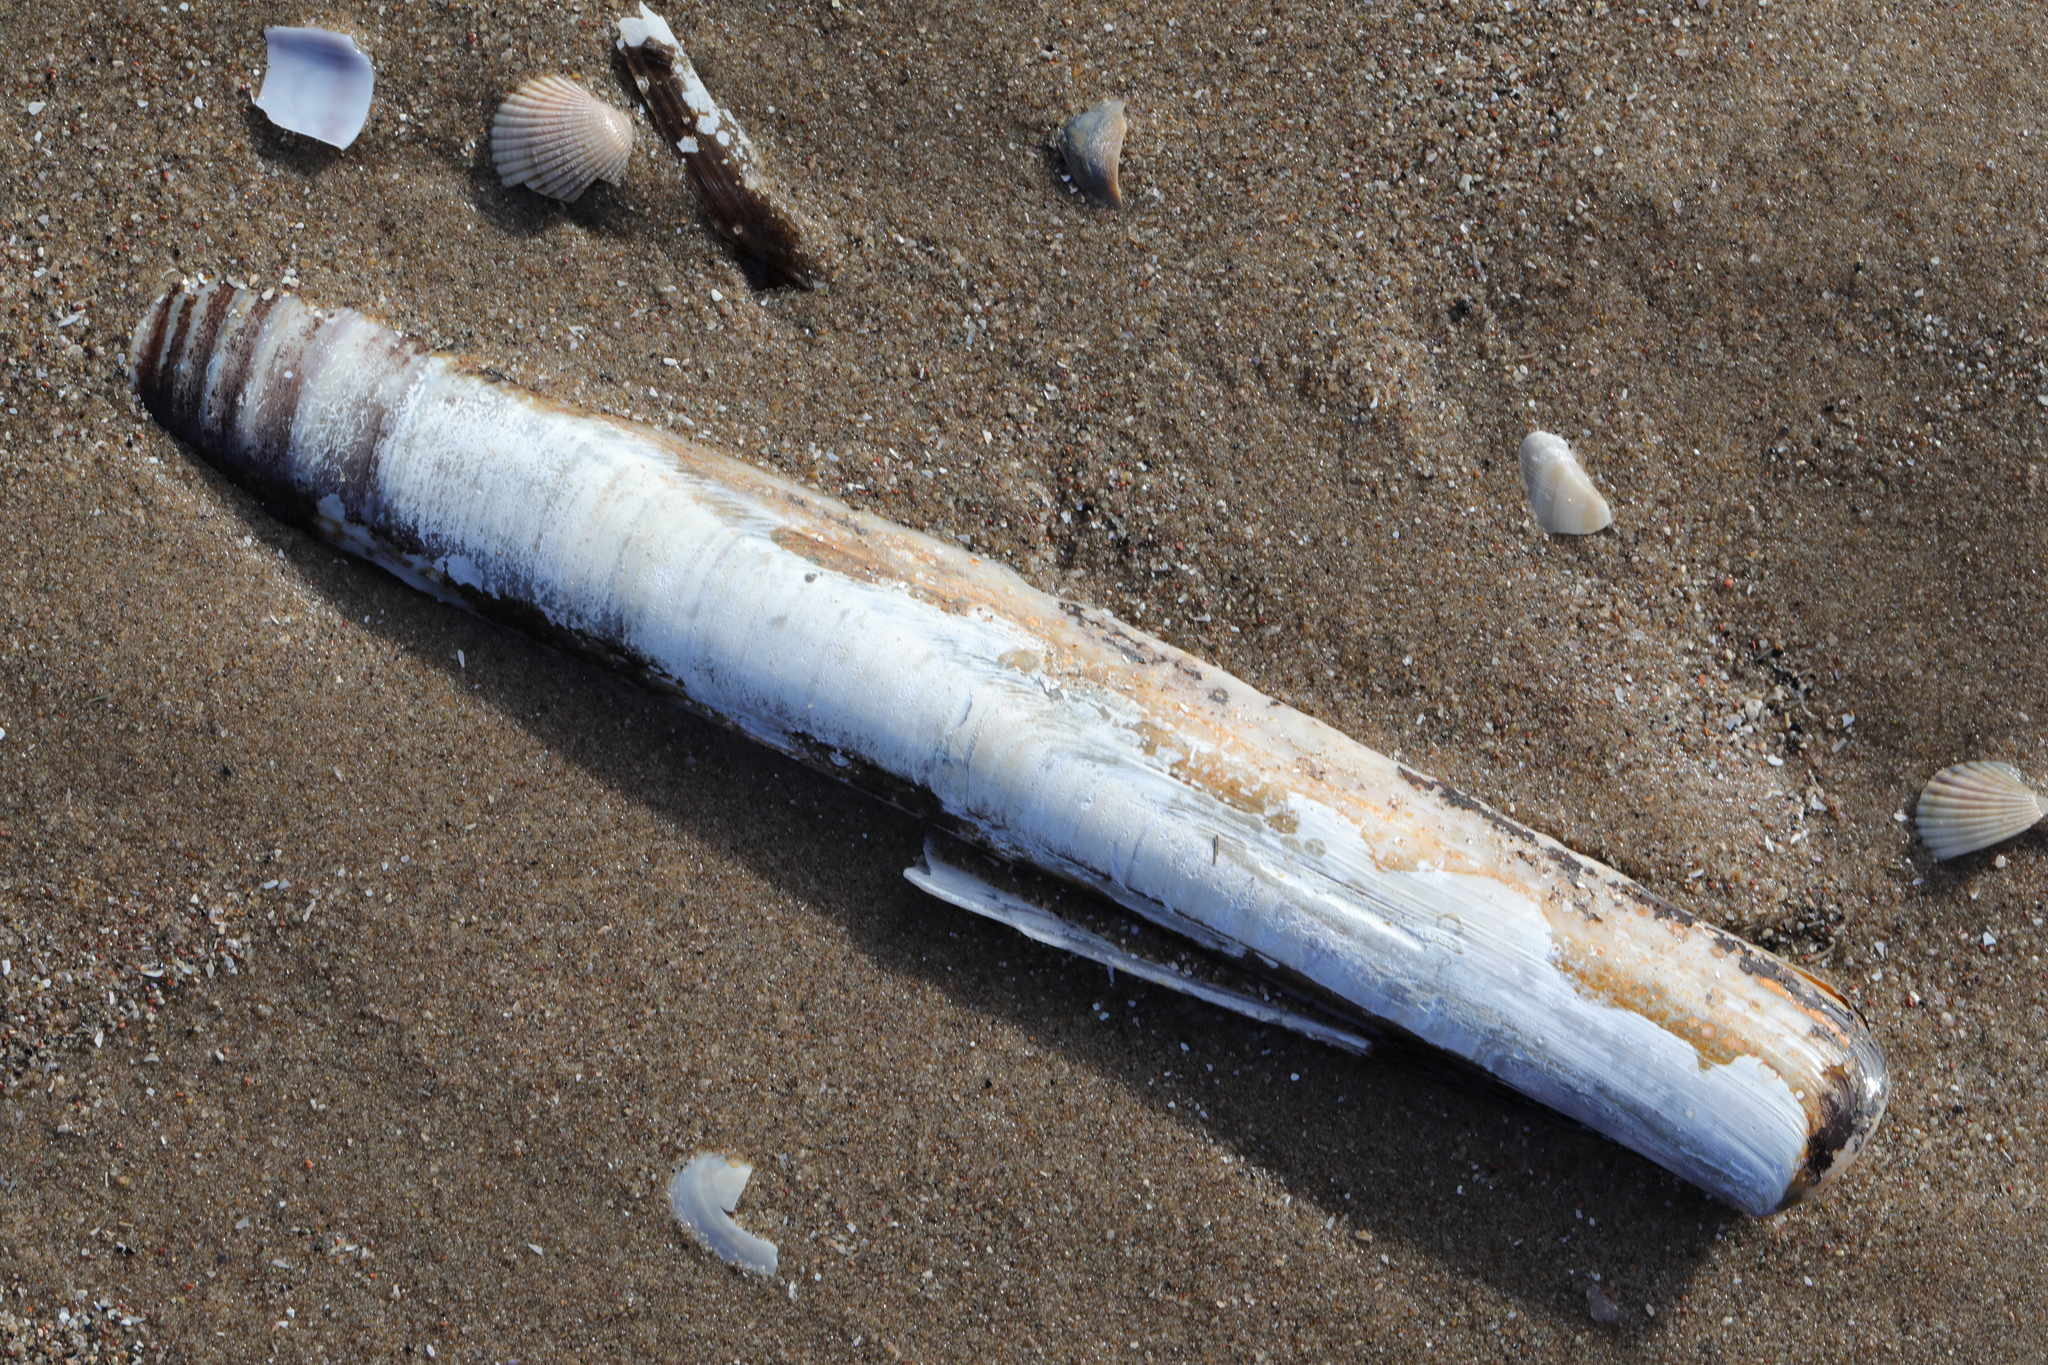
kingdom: Animalia
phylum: Mollusca
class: Bivalvia
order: Adapedonta
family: Pharidae
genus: Ensis
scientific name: Ensis siliqua
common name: Pod razor shell
